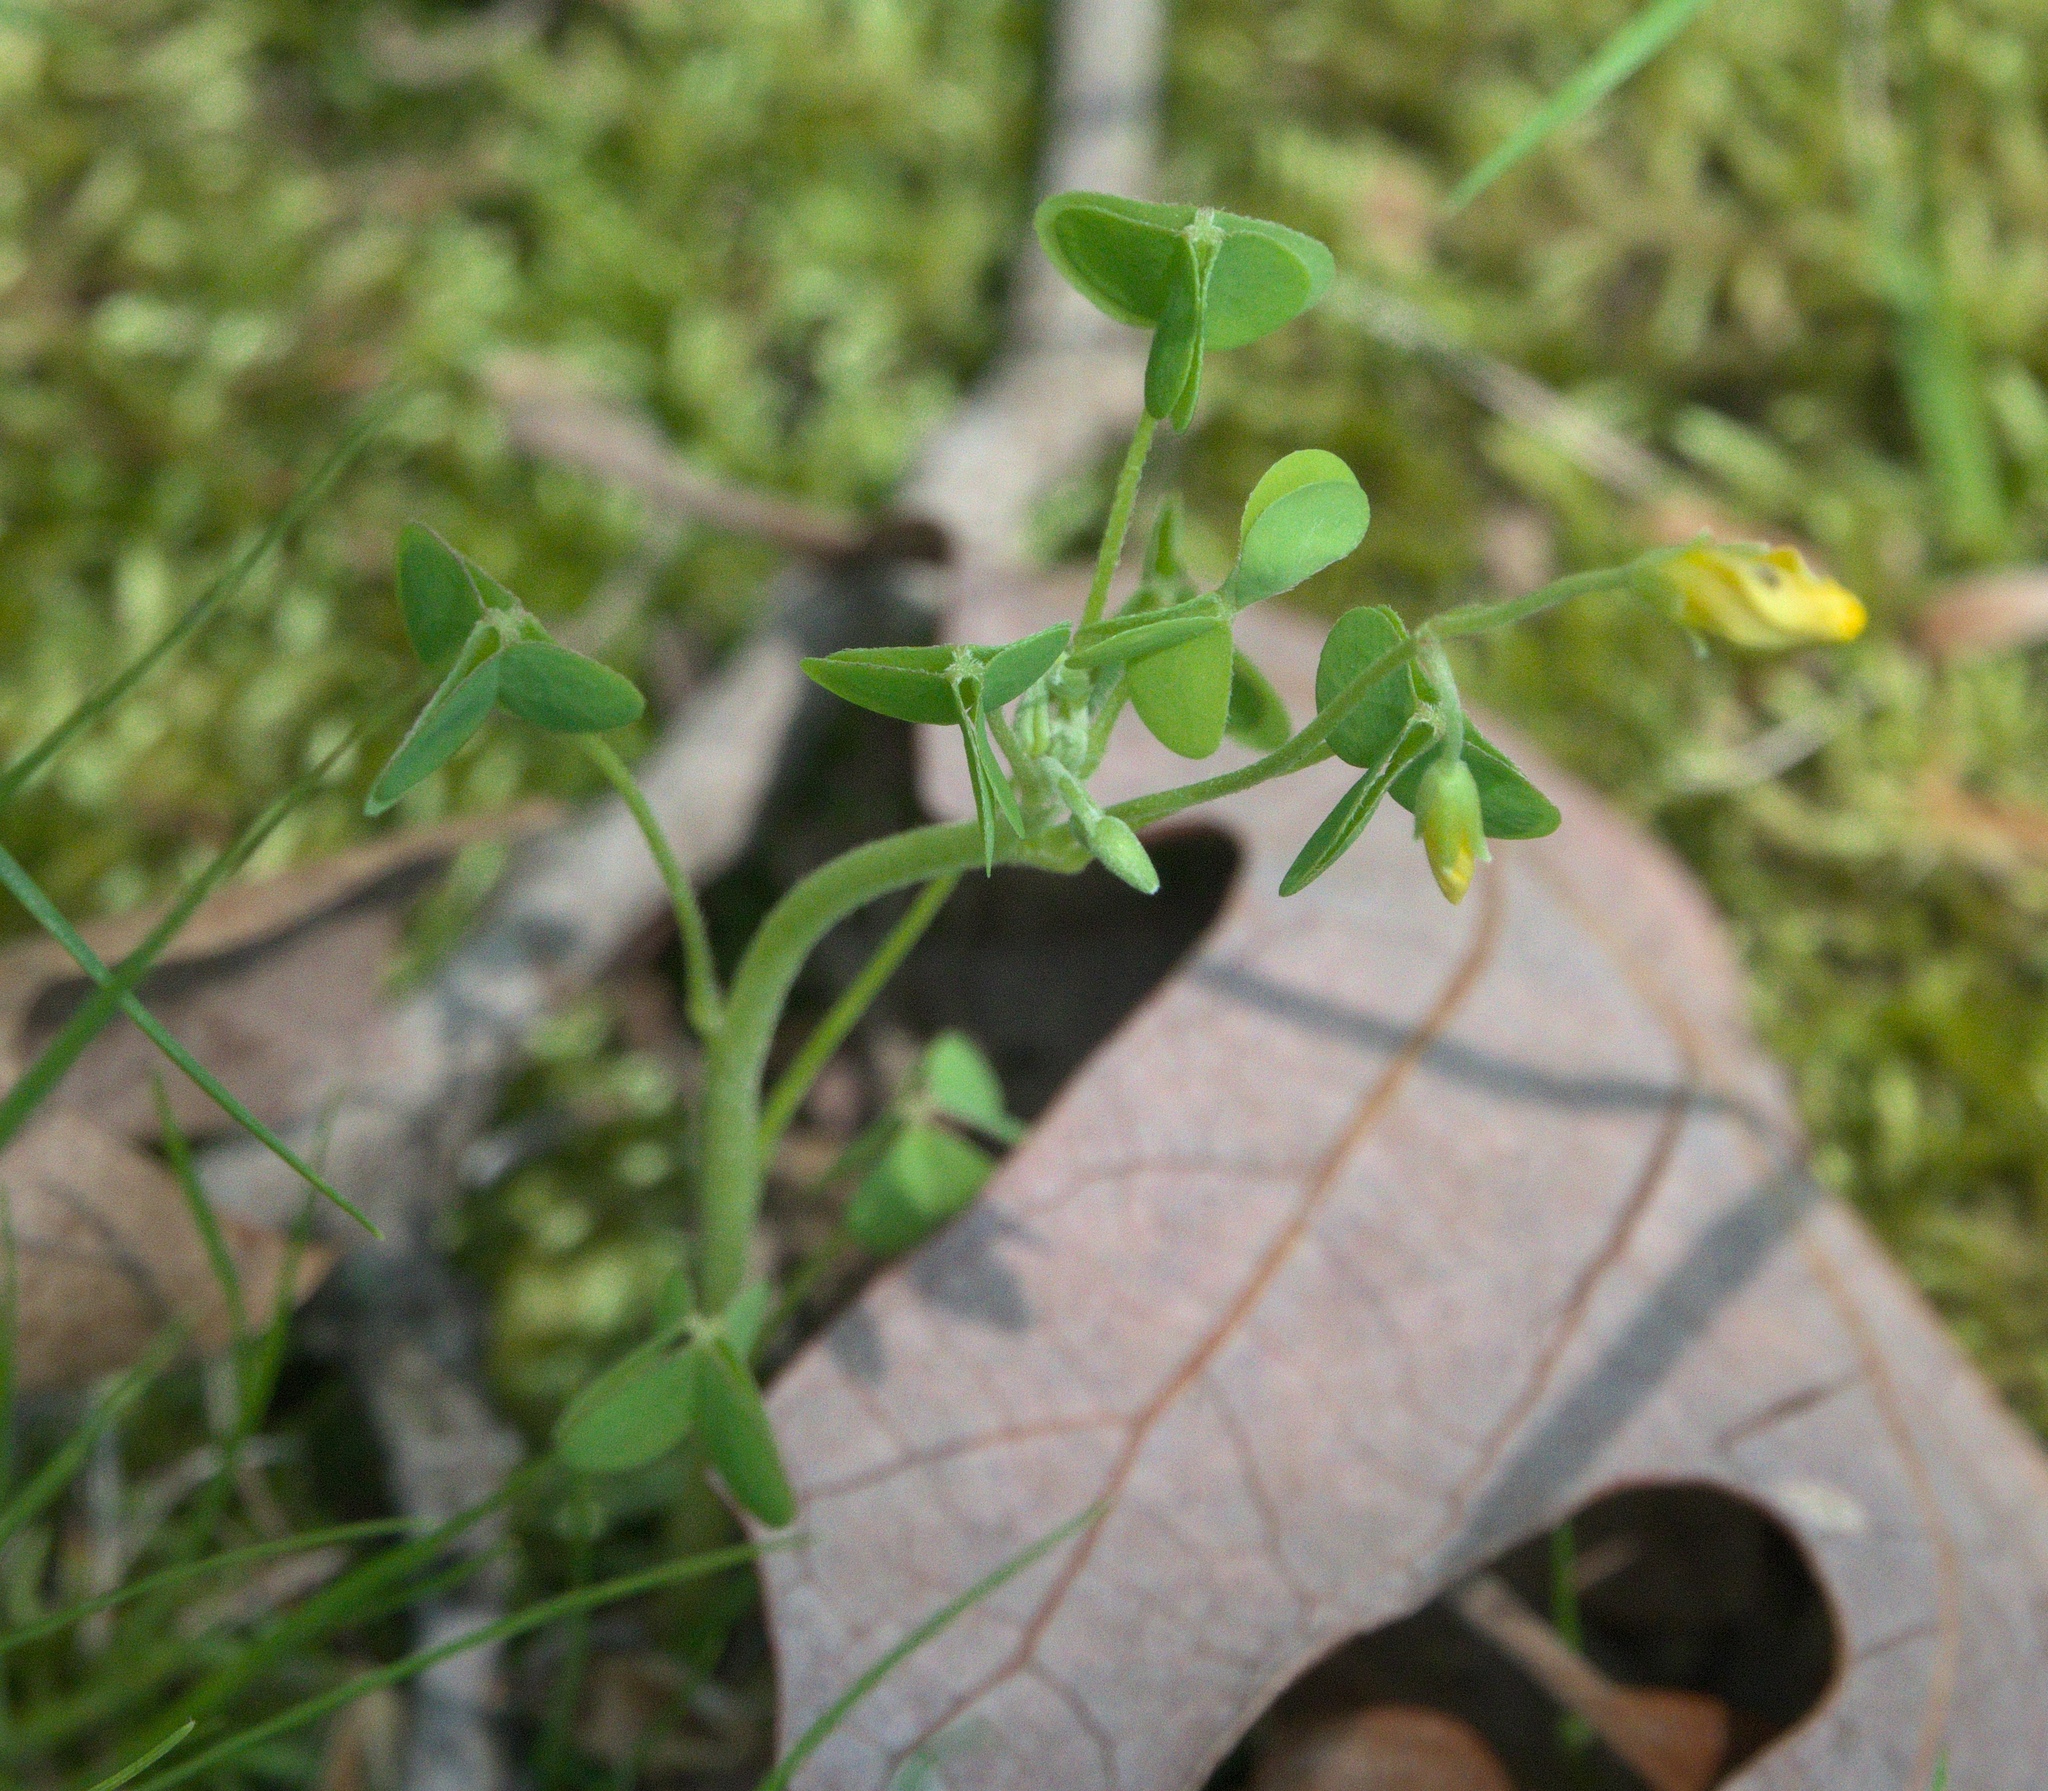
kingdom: Plantae
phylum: Tracheophyta
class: Magnoliopsida
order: Oxalidales
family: Oxalidaceae
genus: Oxalis
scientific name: Oxalis dillenii
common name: Sussex yellow-sorrel
